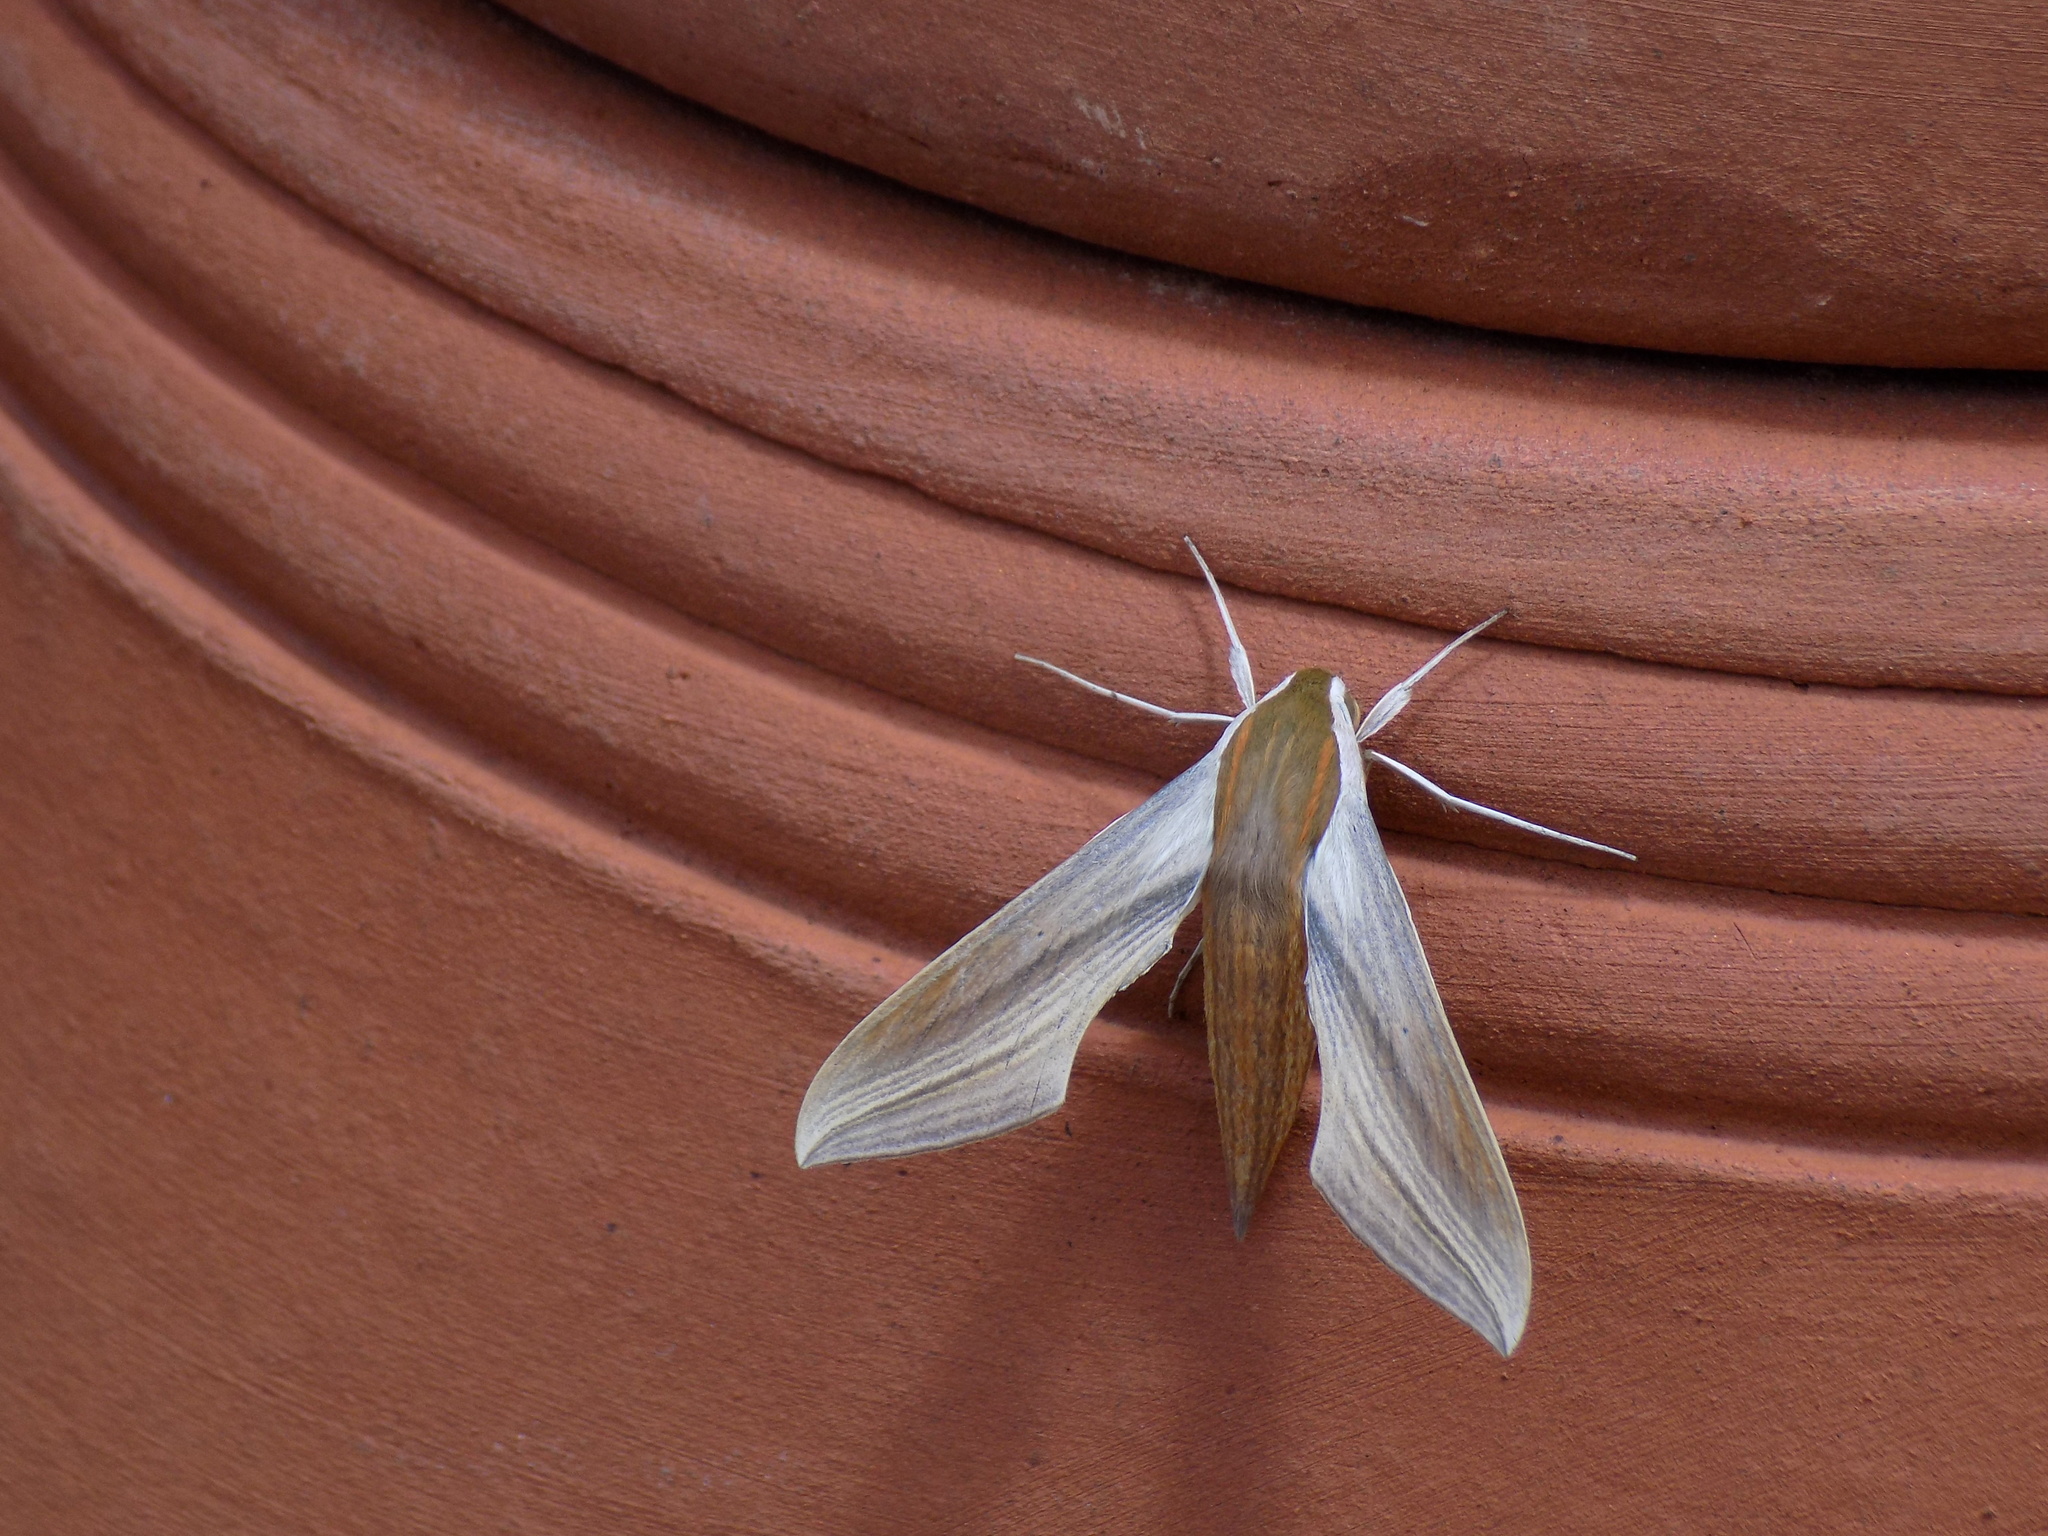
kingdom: Animalia
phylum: Arthropoda
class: Insecta
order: Lepidoptera
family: Sphingidae
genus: Xylophanes
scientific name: Xylophanes tersa
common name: Tersa sphinx
